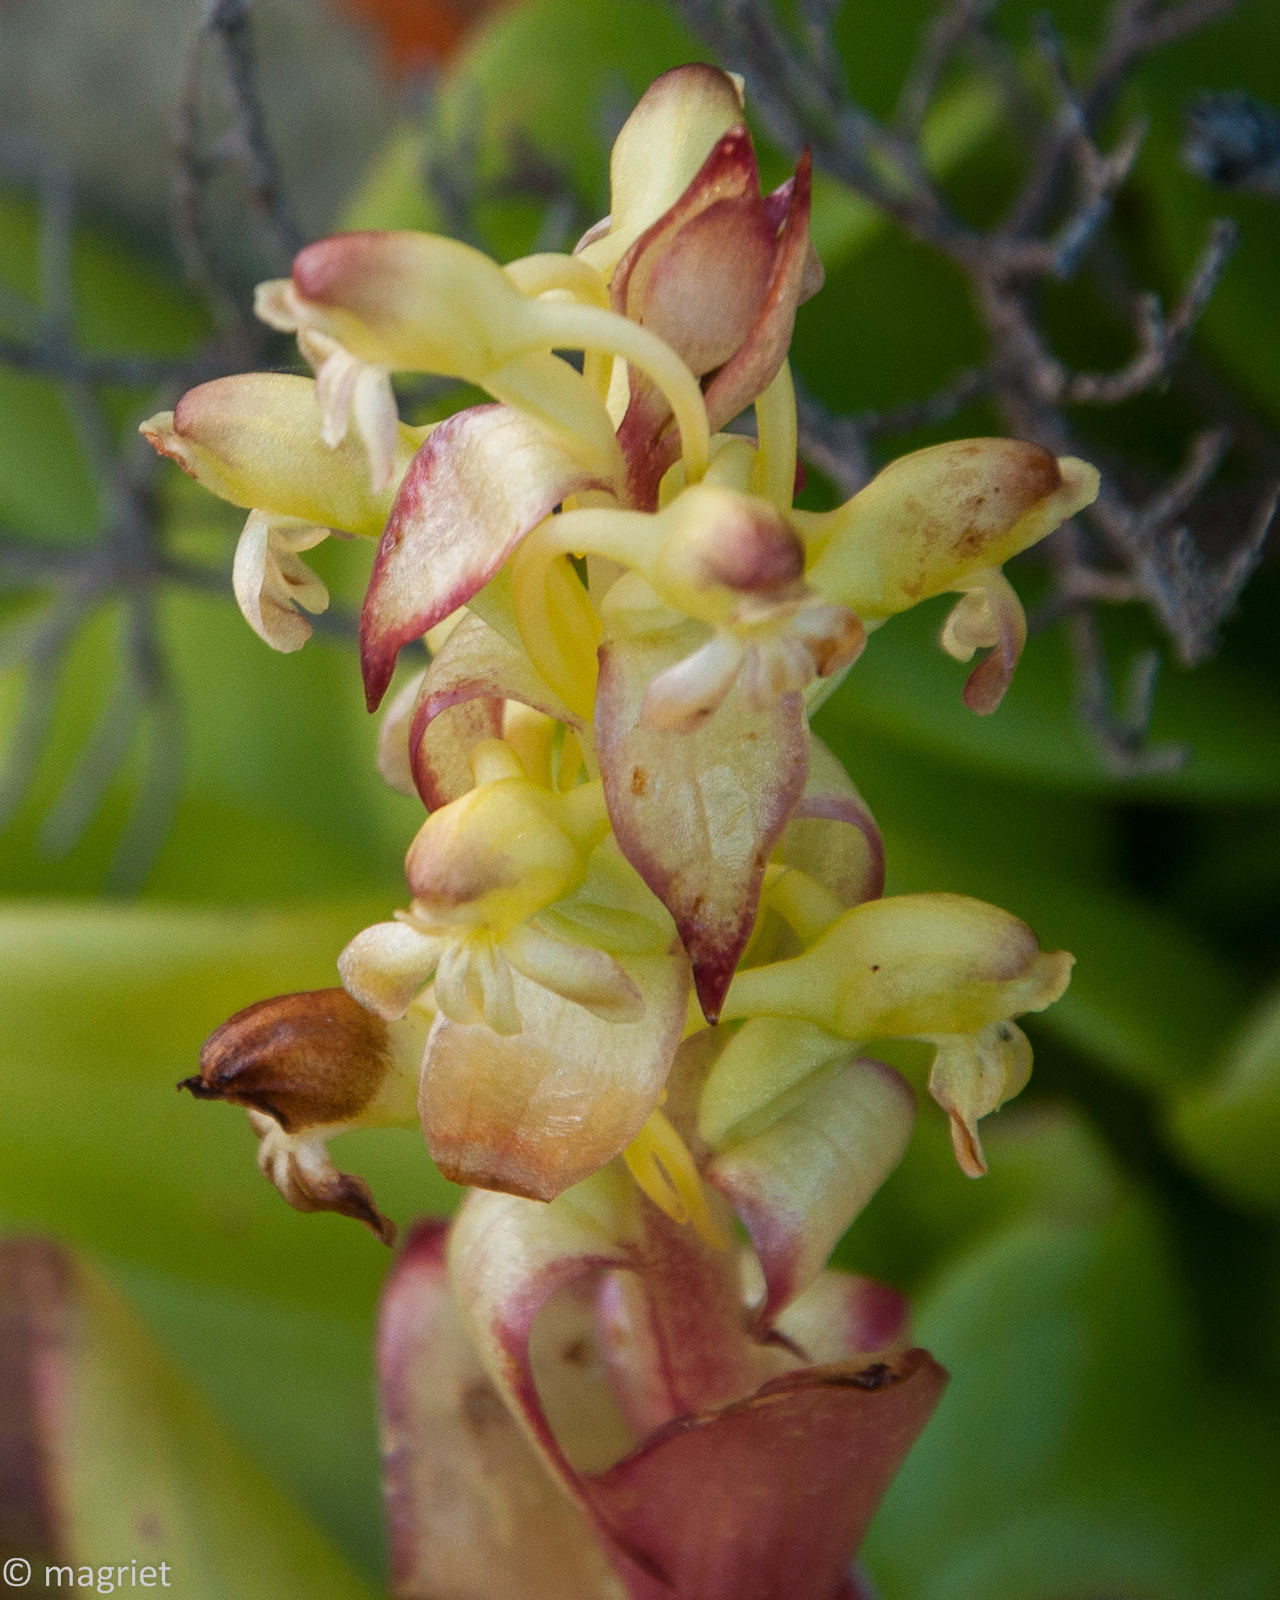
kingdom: Plantae
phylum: Tracheophyta
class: Liliopsida
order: Asparagales
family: Orchidaceae
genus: Satyrium
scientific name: Satyrium odorum
